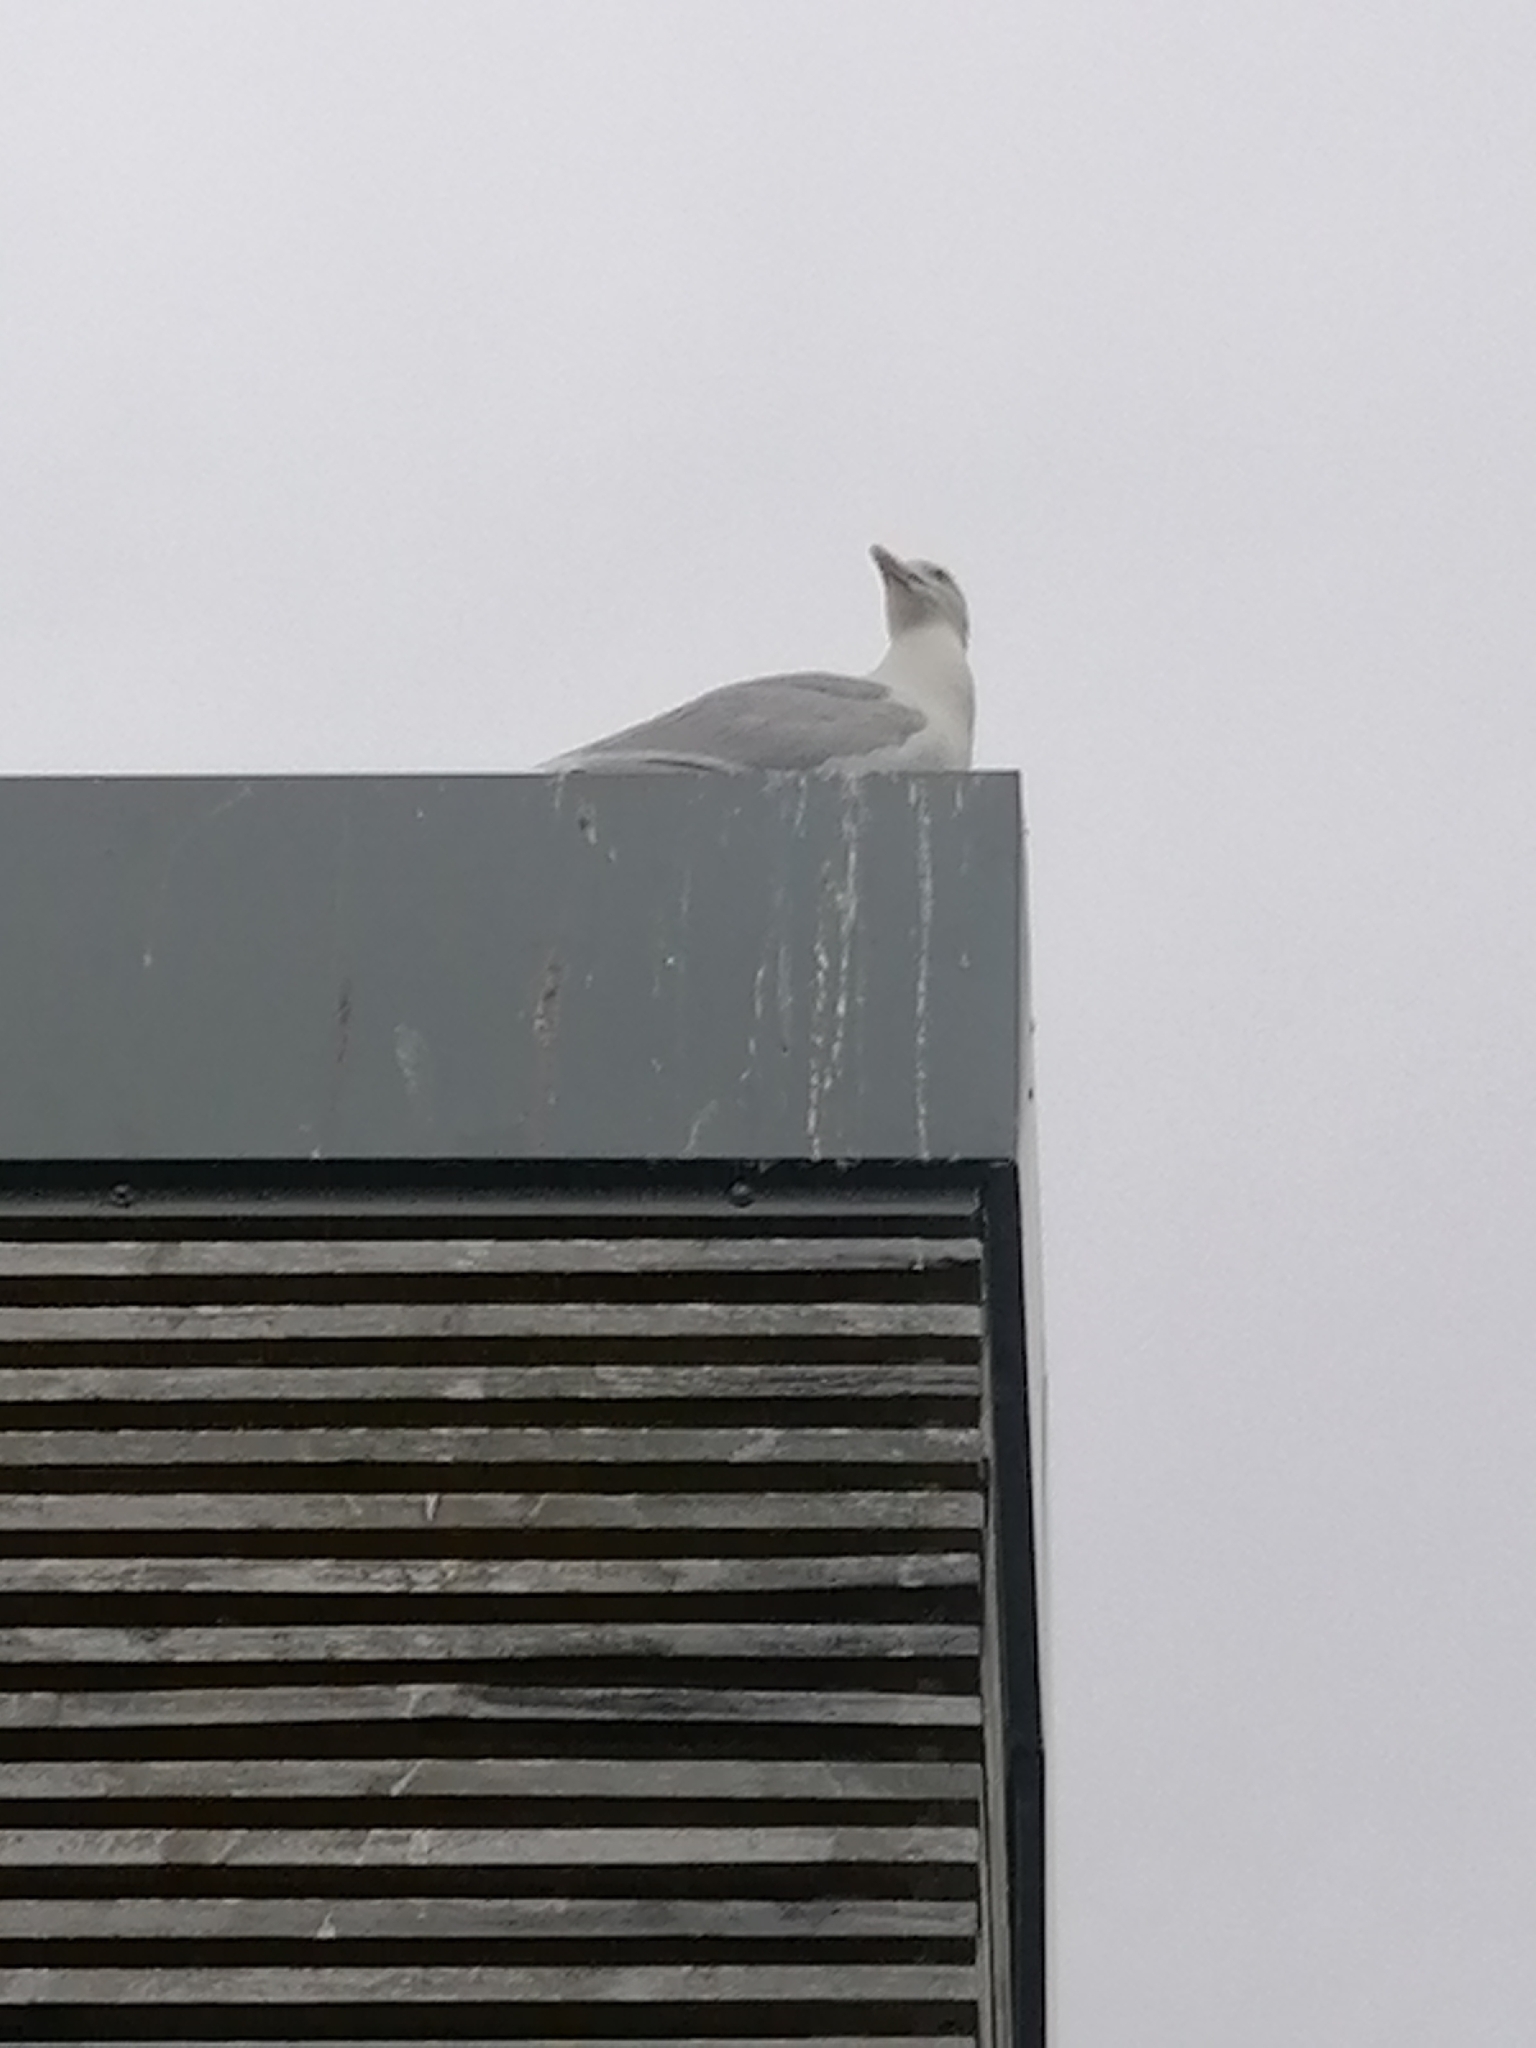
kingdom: Animalia
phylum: Chordata
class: Aves
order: Charadriiformes
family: Laridae
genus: Larus
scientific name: Larus argentatus
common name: Herring gull
